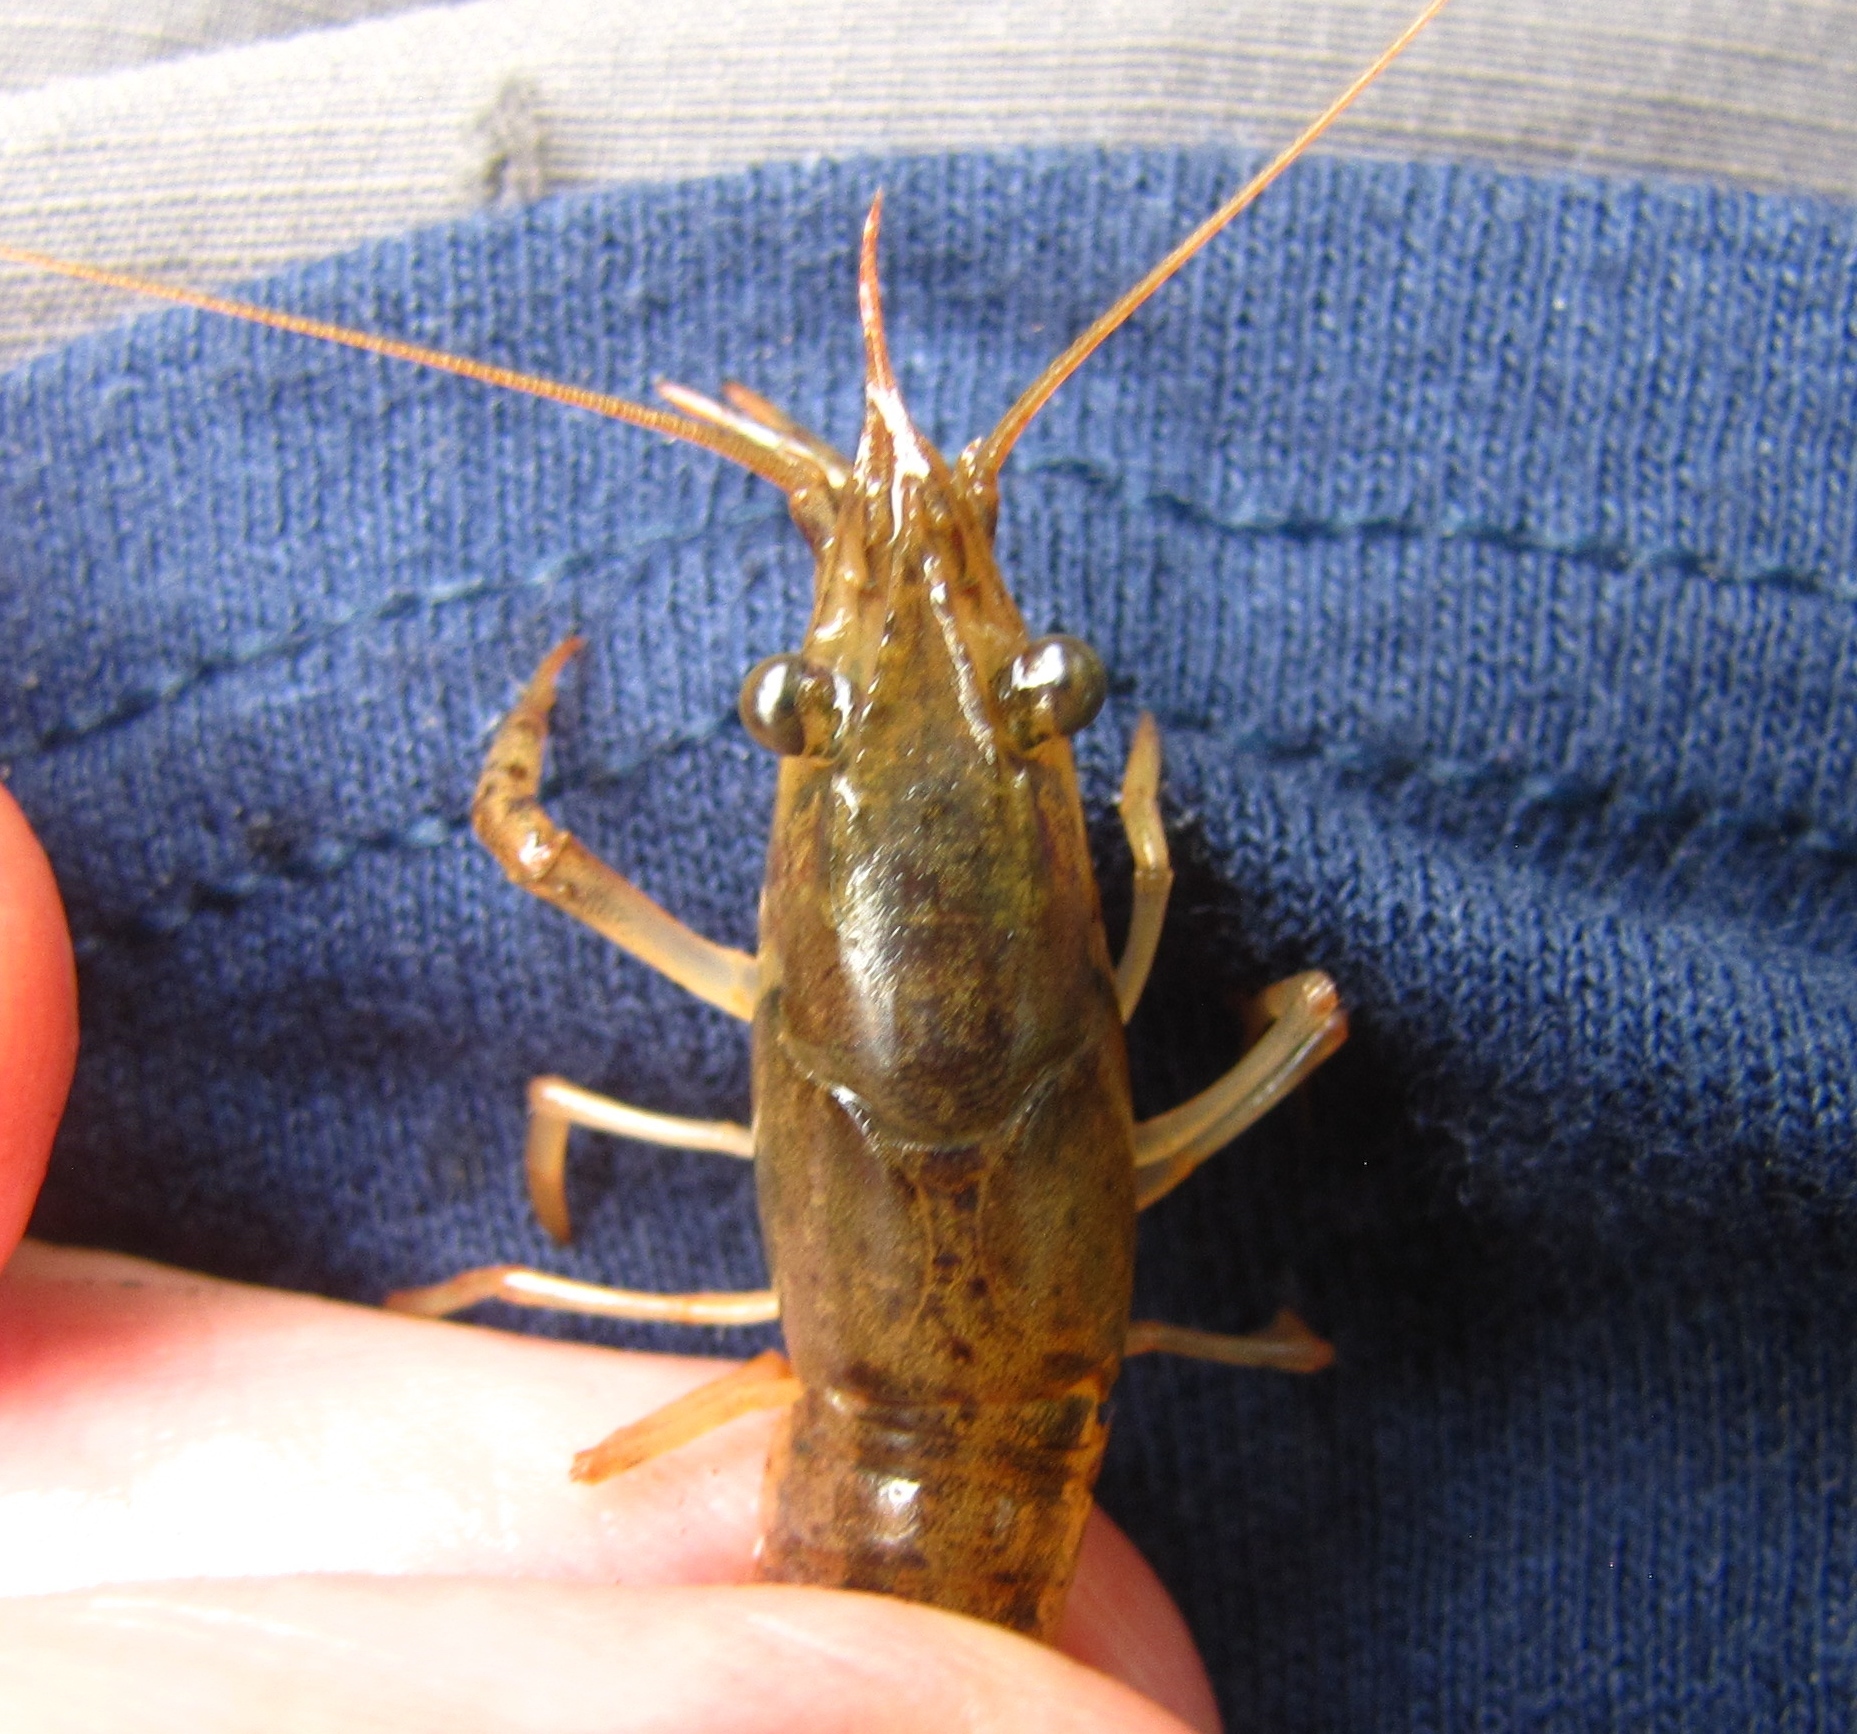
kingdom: Animalia
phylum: Arthropoda
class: Malacostraca
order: Decapoda
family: Cambaridae
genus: Procambarus
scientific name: Procambarus acutus
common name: White river crayfish
